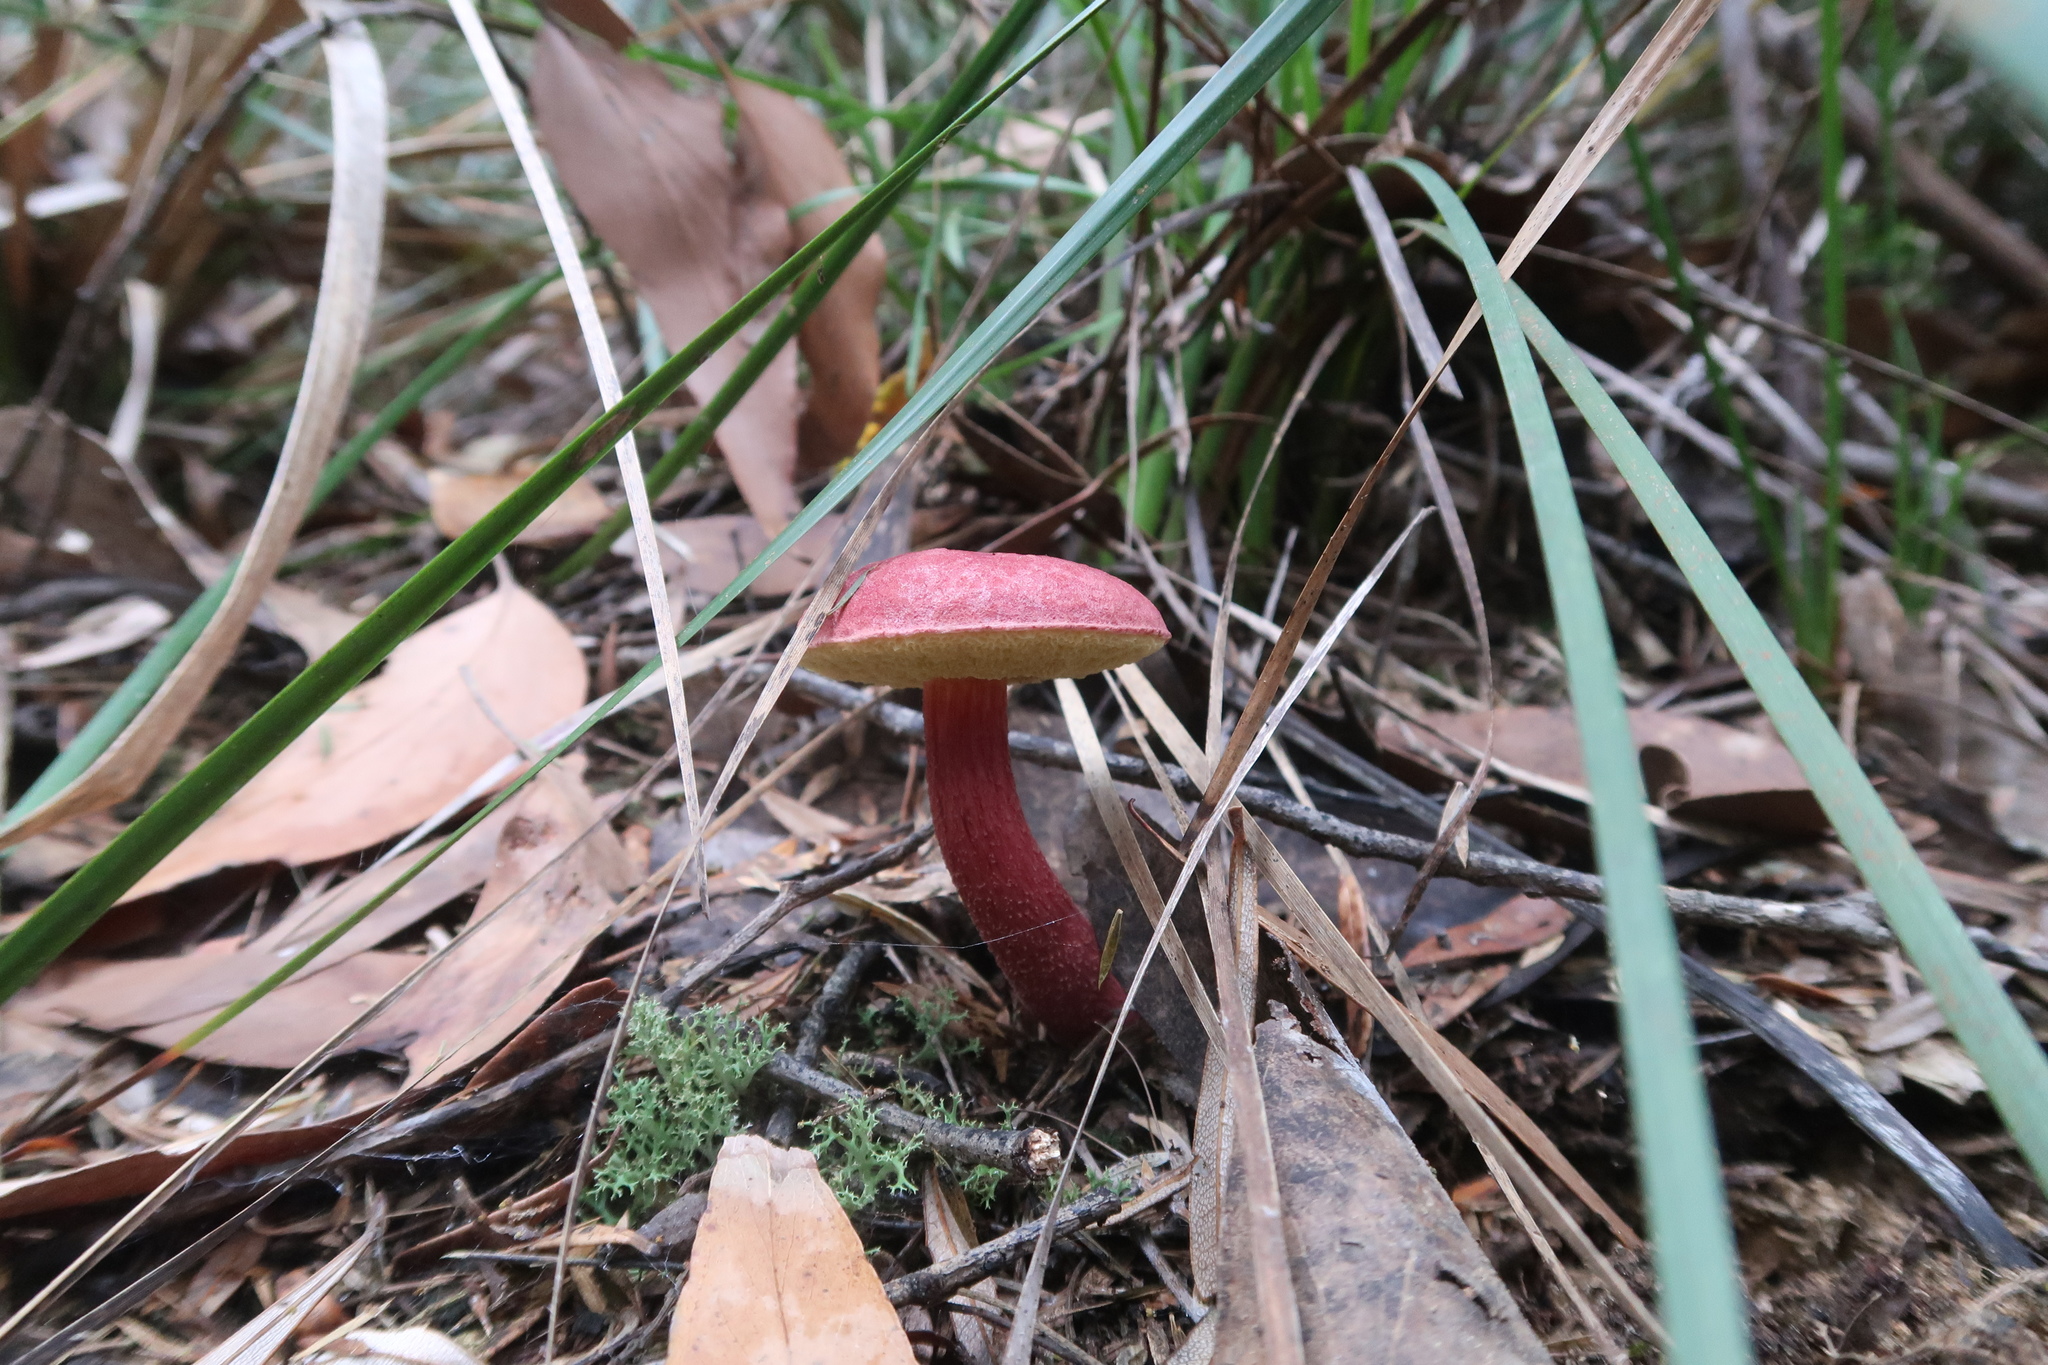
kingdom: Fungi
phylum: Basidiomycota
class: Agaricomycetes
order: Boletales
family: Boletaceae
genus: Boletellus
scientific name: Boletellus obscurecoccineus
